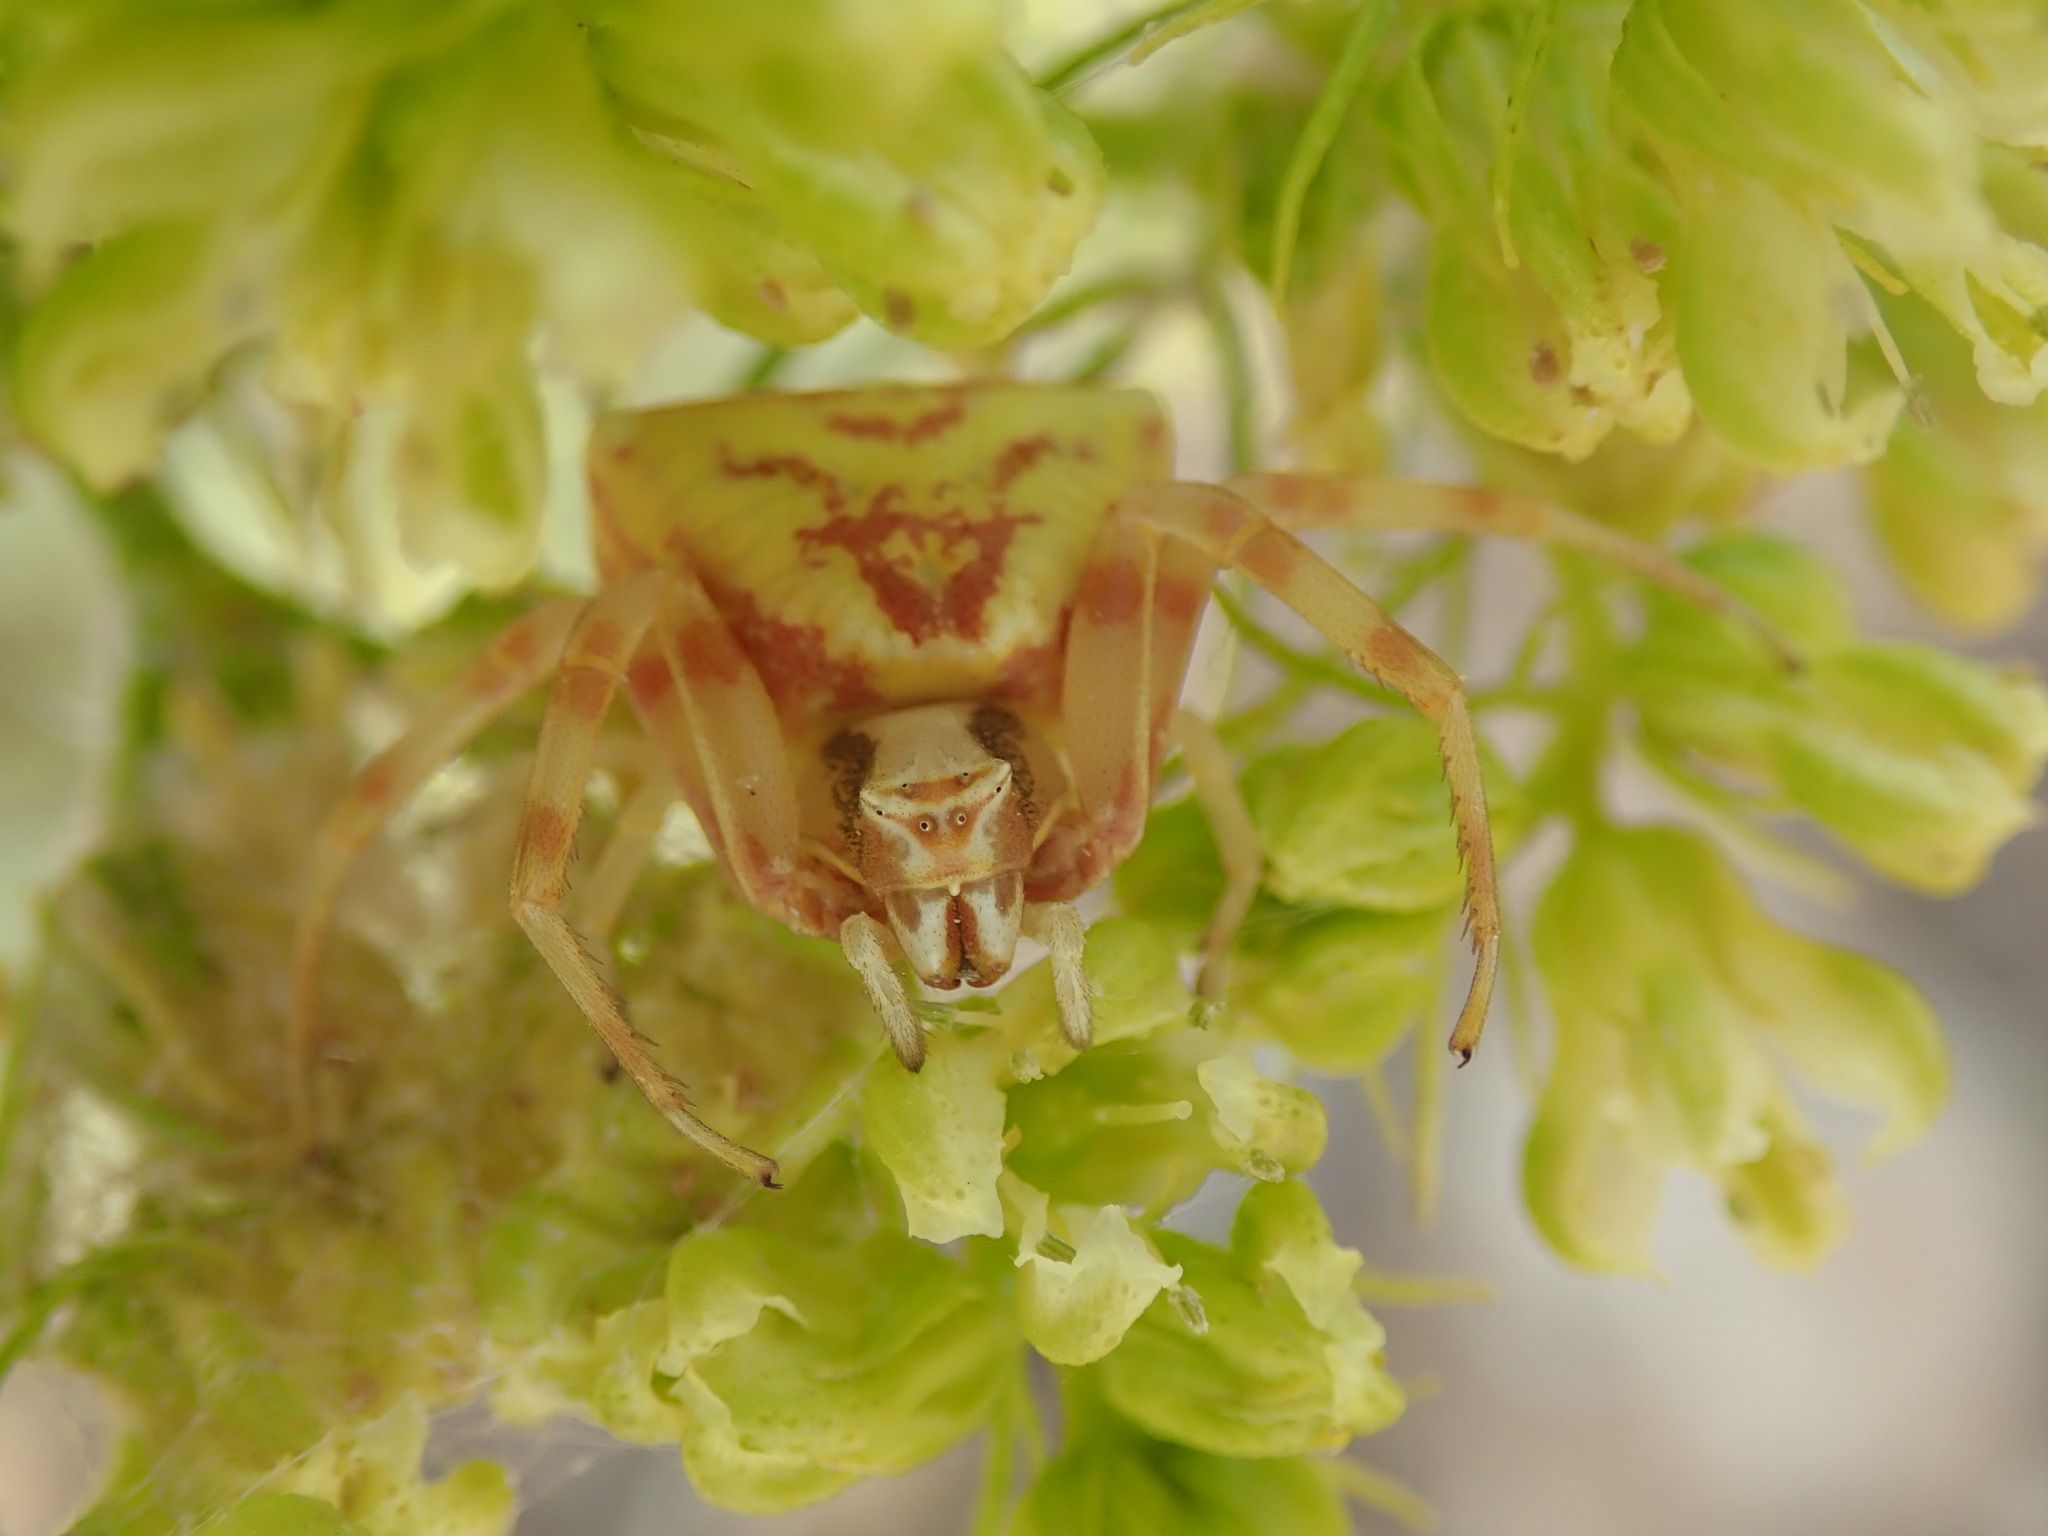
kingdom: Animalia
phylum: Arthropoda
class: Arachnida
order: Araneae
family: Thomisidae
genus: Thomisus
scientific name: Thomisus onustus
